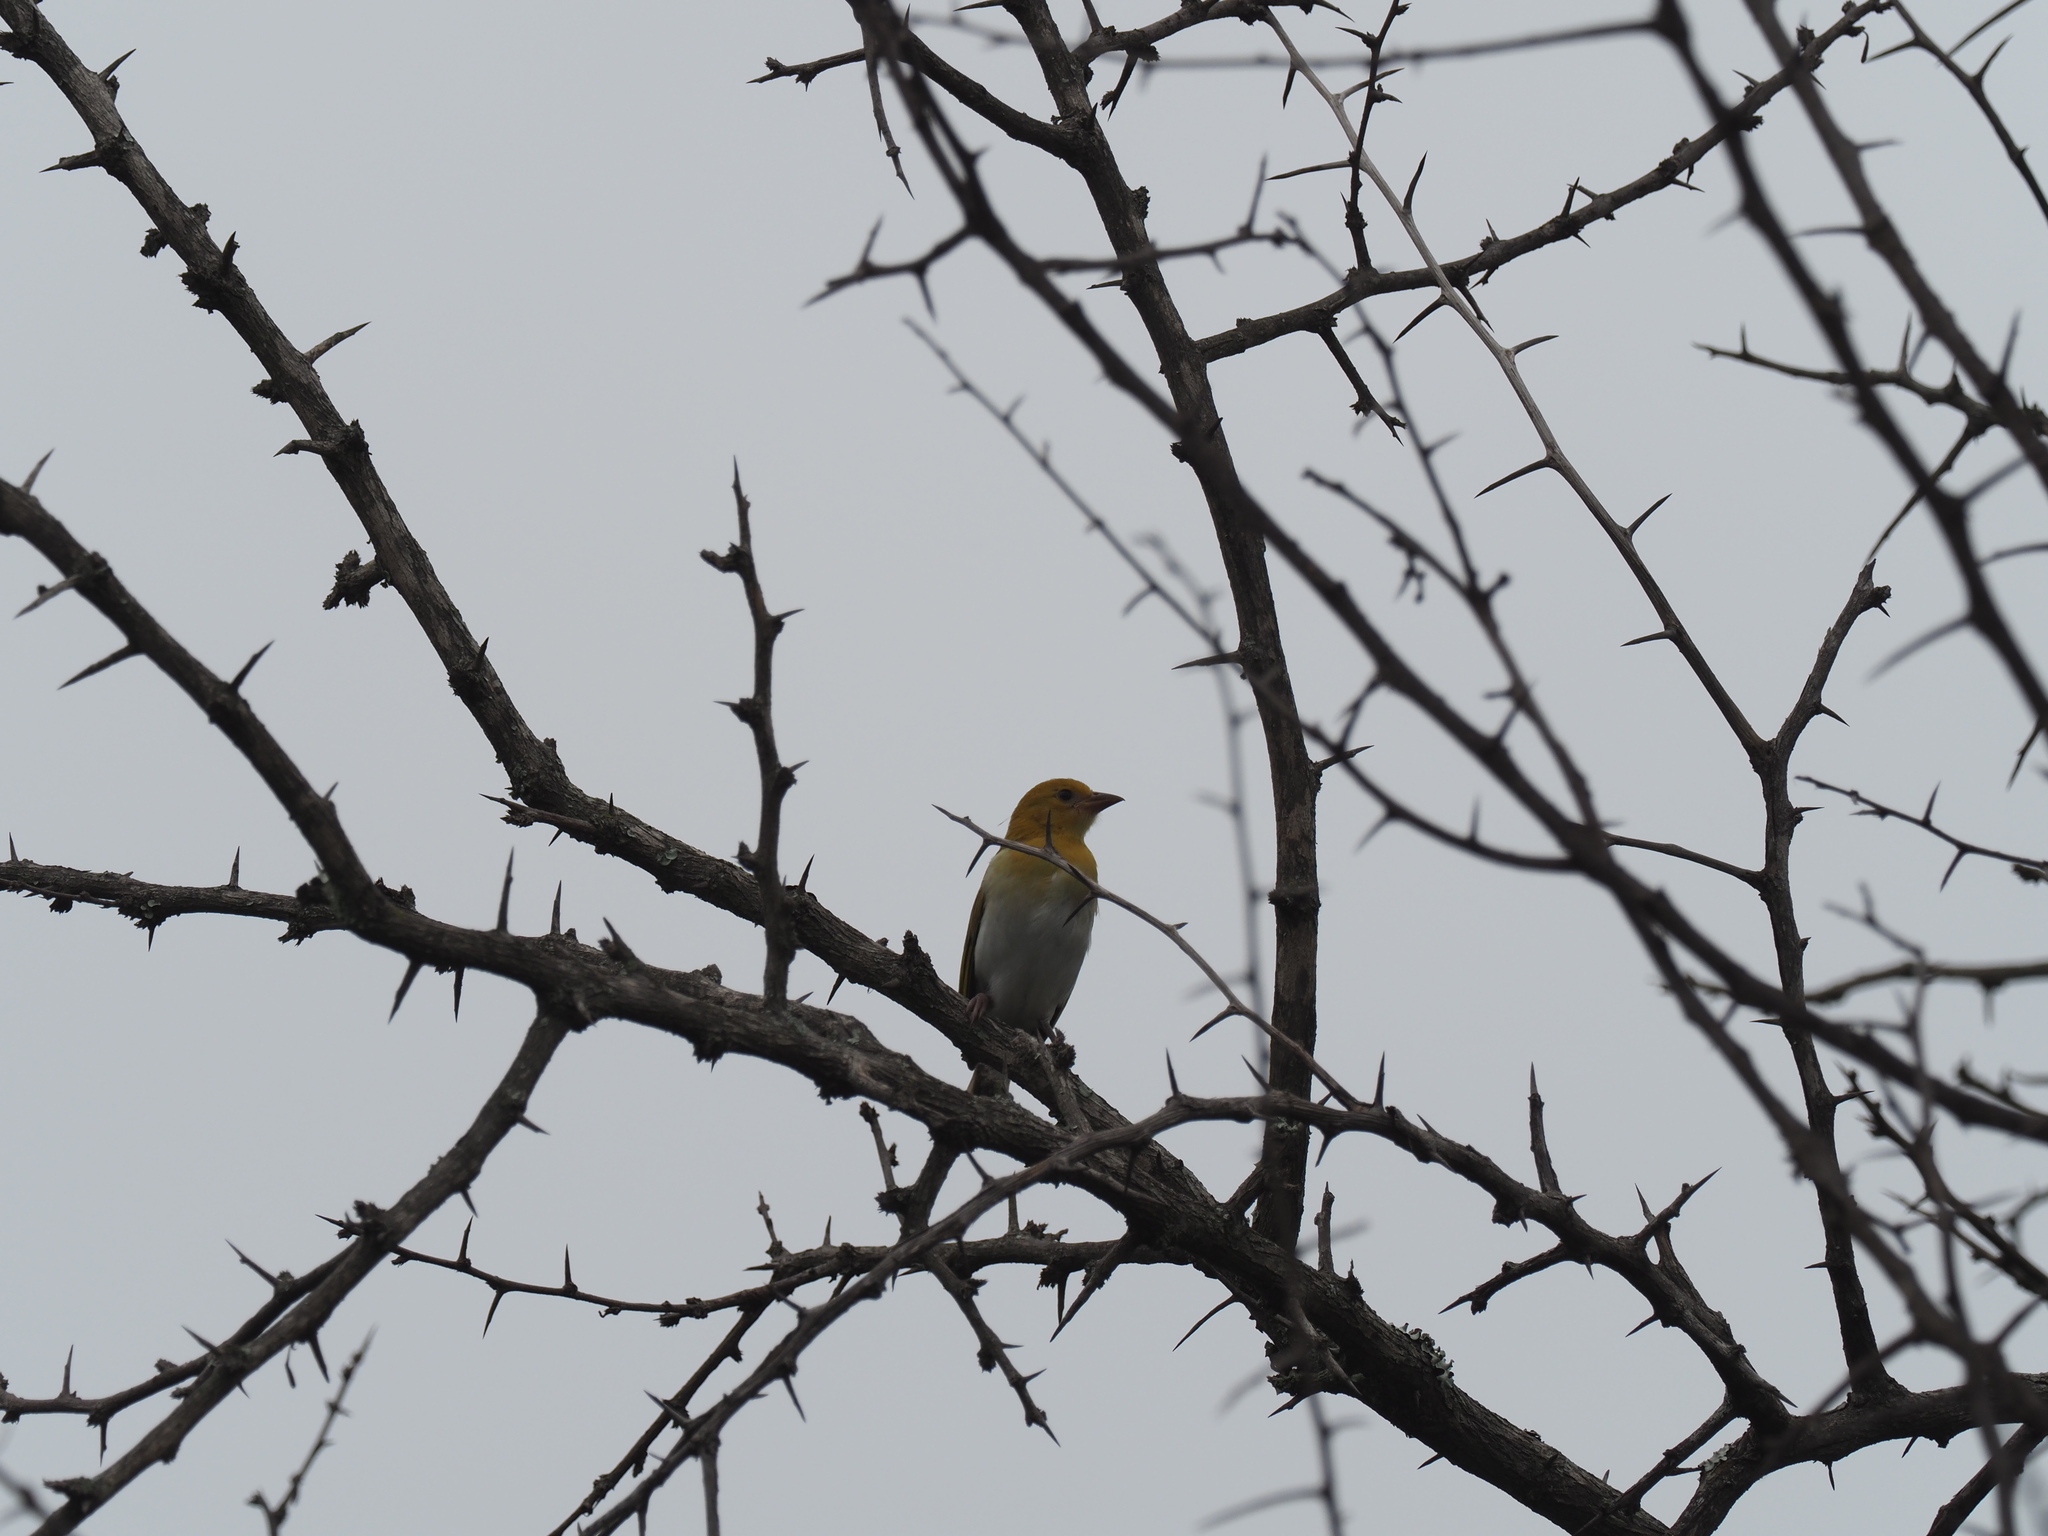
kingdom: Animalia
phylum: Chordata
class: Aves
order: Passeriformes
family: Ploceidae
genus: Anaplectes
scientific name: Anaplectes rubriceps
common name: Red-headed weaver
